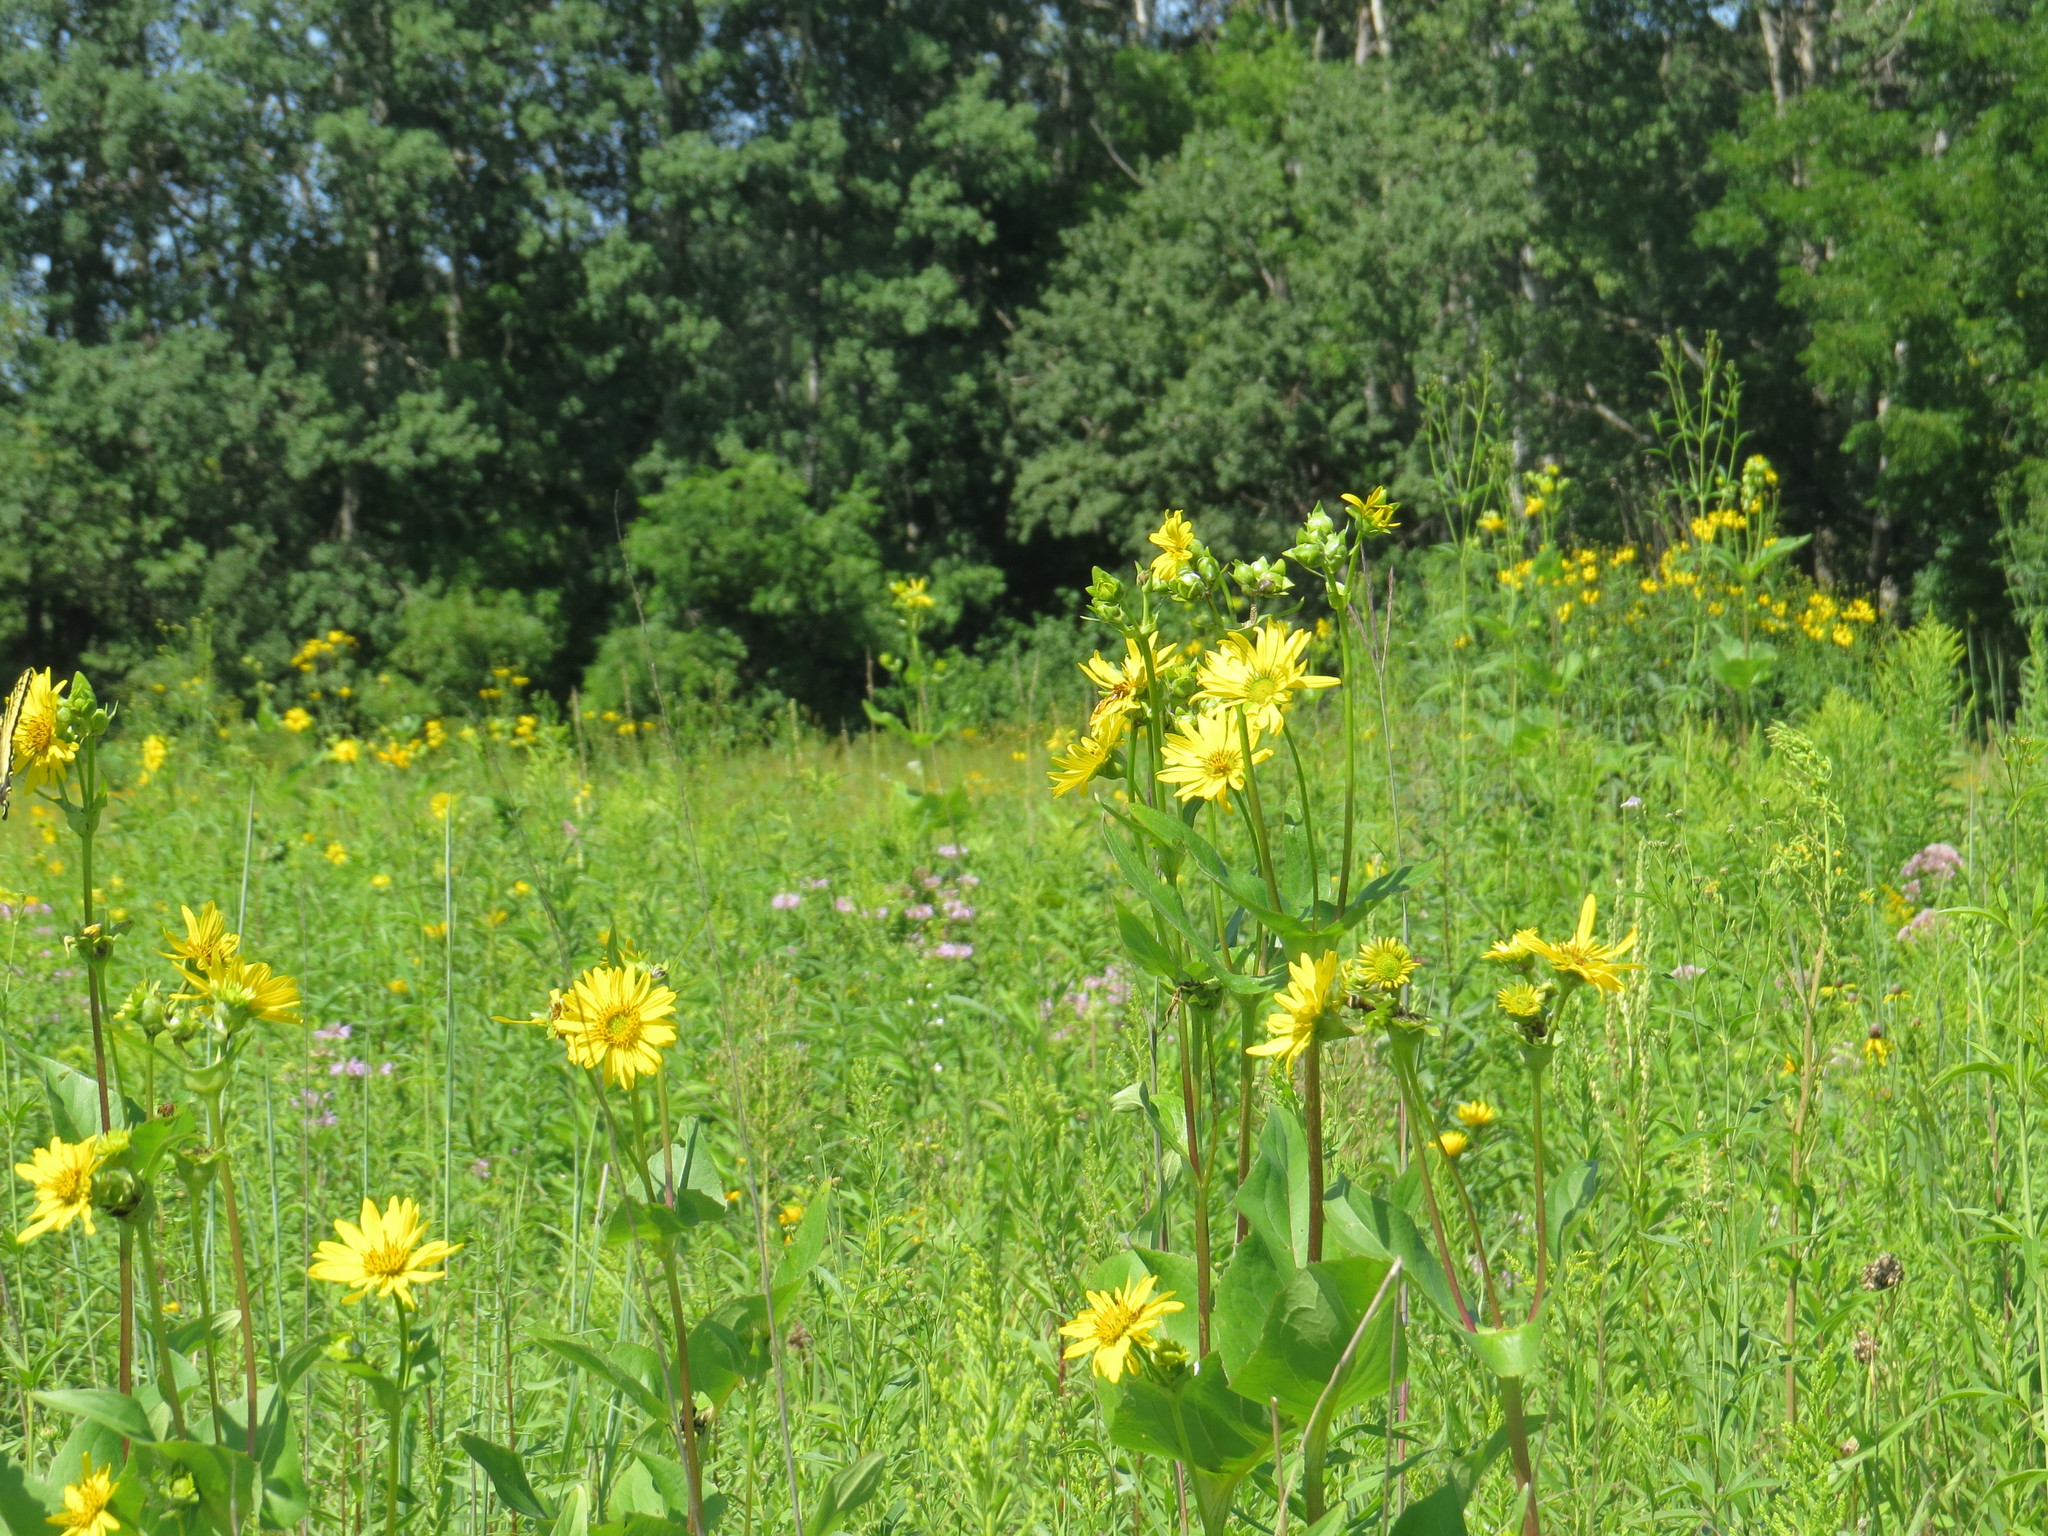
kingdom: Plantae
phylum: Tracheophyta
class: Magnoliopsida
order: Asterales
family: Asteraceae
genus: Silphium
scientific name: Silphium perfoliatum
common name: Cup-plant
